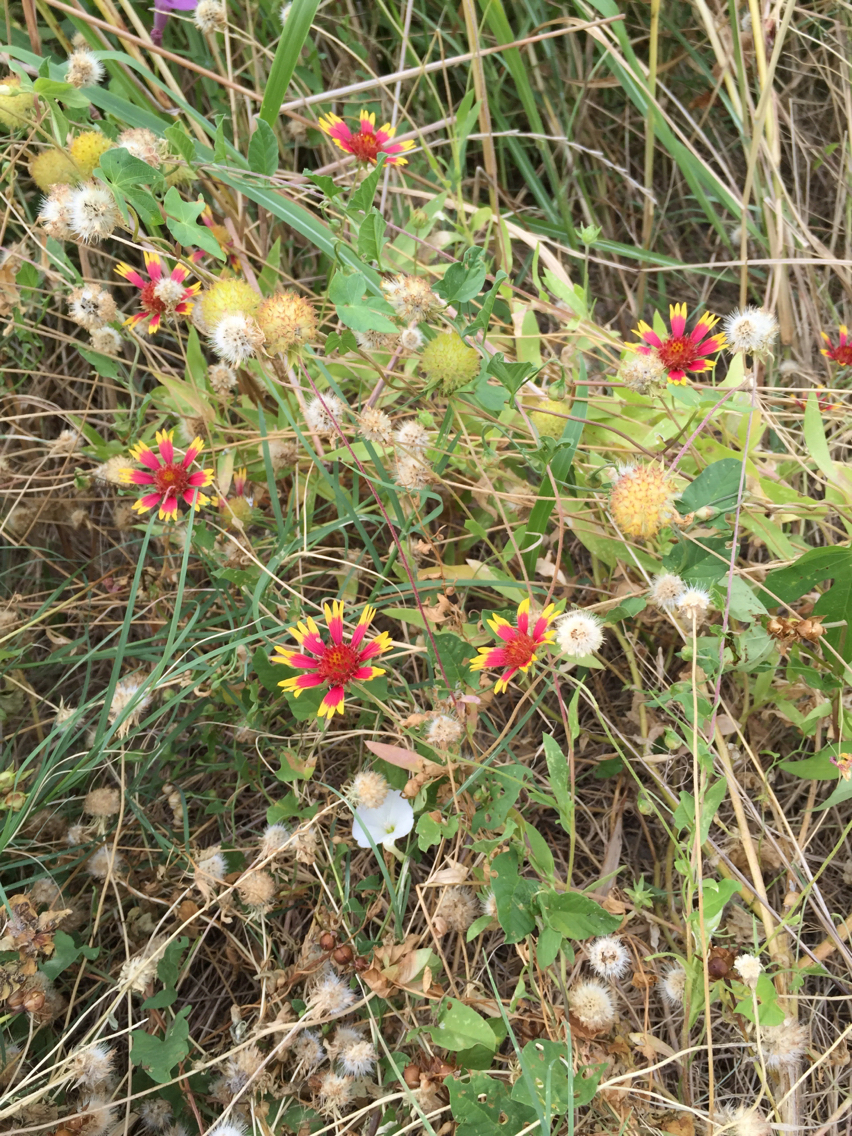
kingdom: Plantae
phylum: Tracheophyta
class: Magnoliopsida
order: Asterales
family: Asteraceae
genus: Gaillardia
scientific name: Gaillardia pulchella
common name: Firewheel
